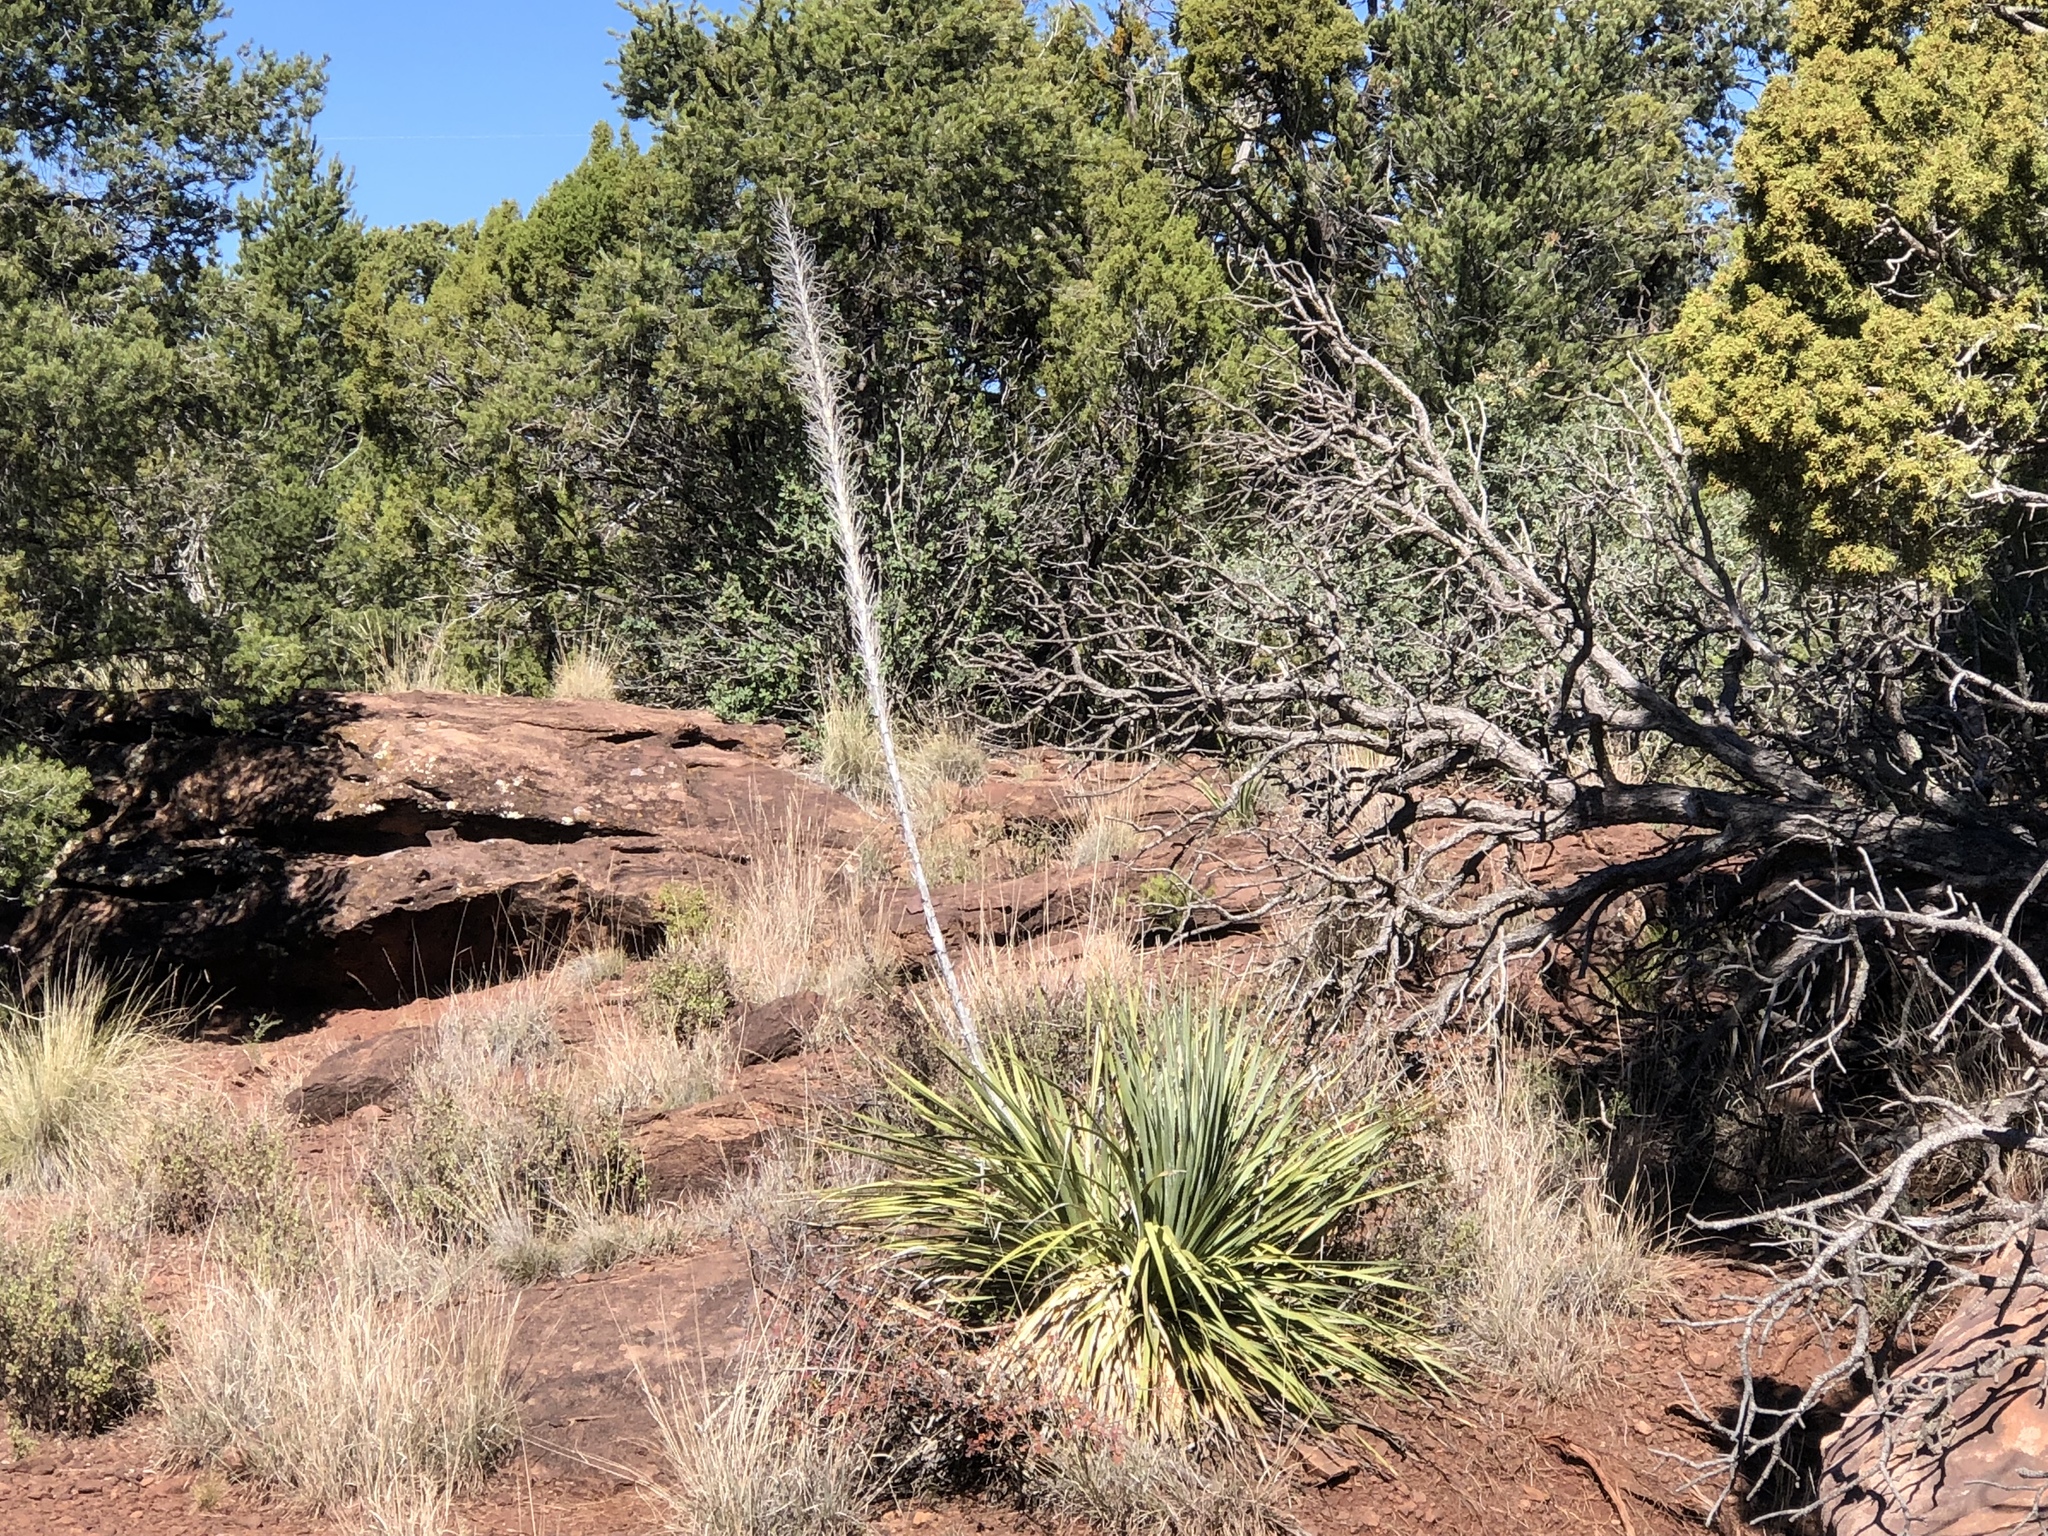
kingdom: Plantae
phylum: Tracheophyta
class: Liliopsida
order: Asparagales
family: Asparagaceae
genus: Dasylirion
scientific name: Dasylirion wheeleri
